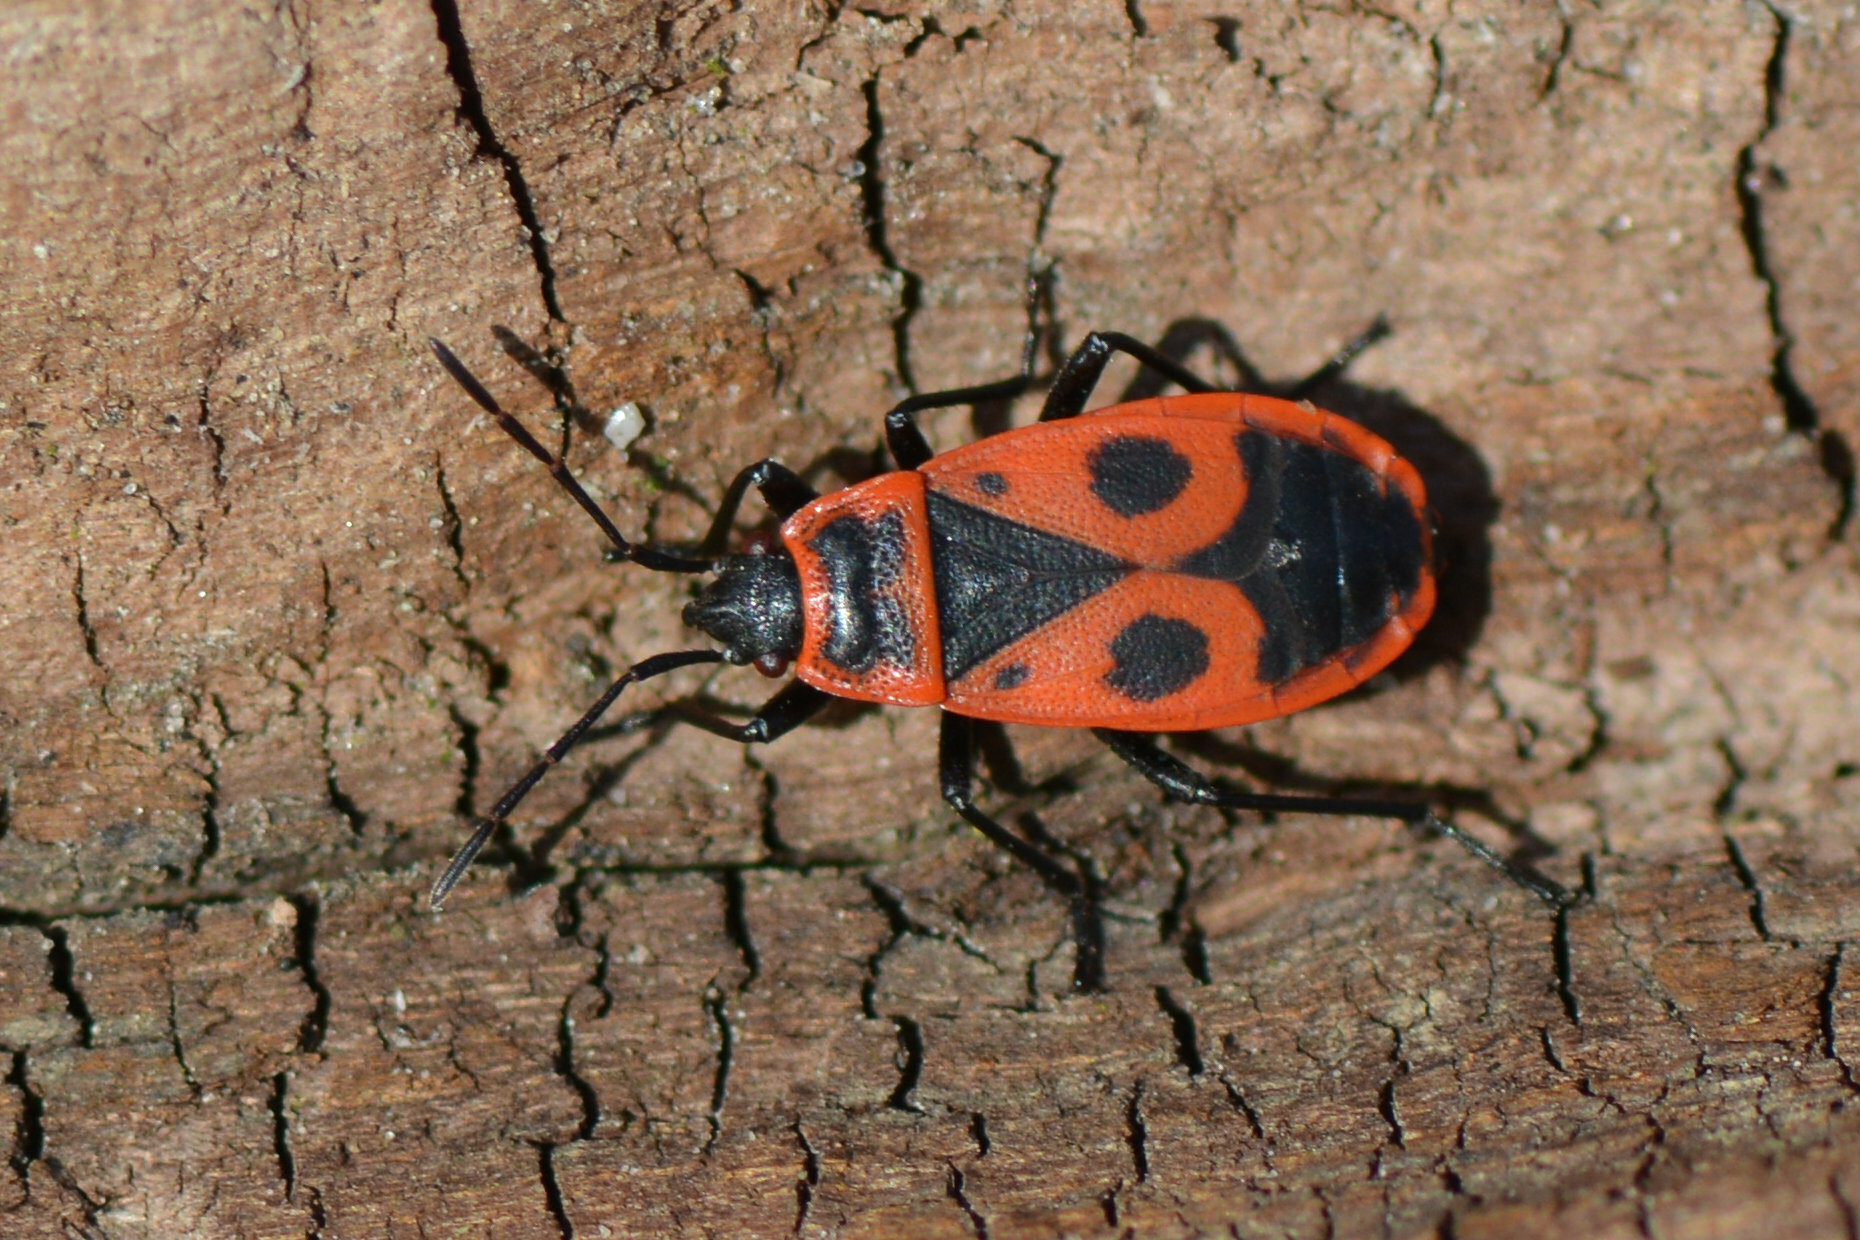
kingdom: Animalia
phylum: Arthropoda
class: Insecta
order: Hemiptera
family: Pyrrhocoridae
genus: Pyrrhocoris
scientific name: Pyrrhocoris apterus
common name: Firebug
